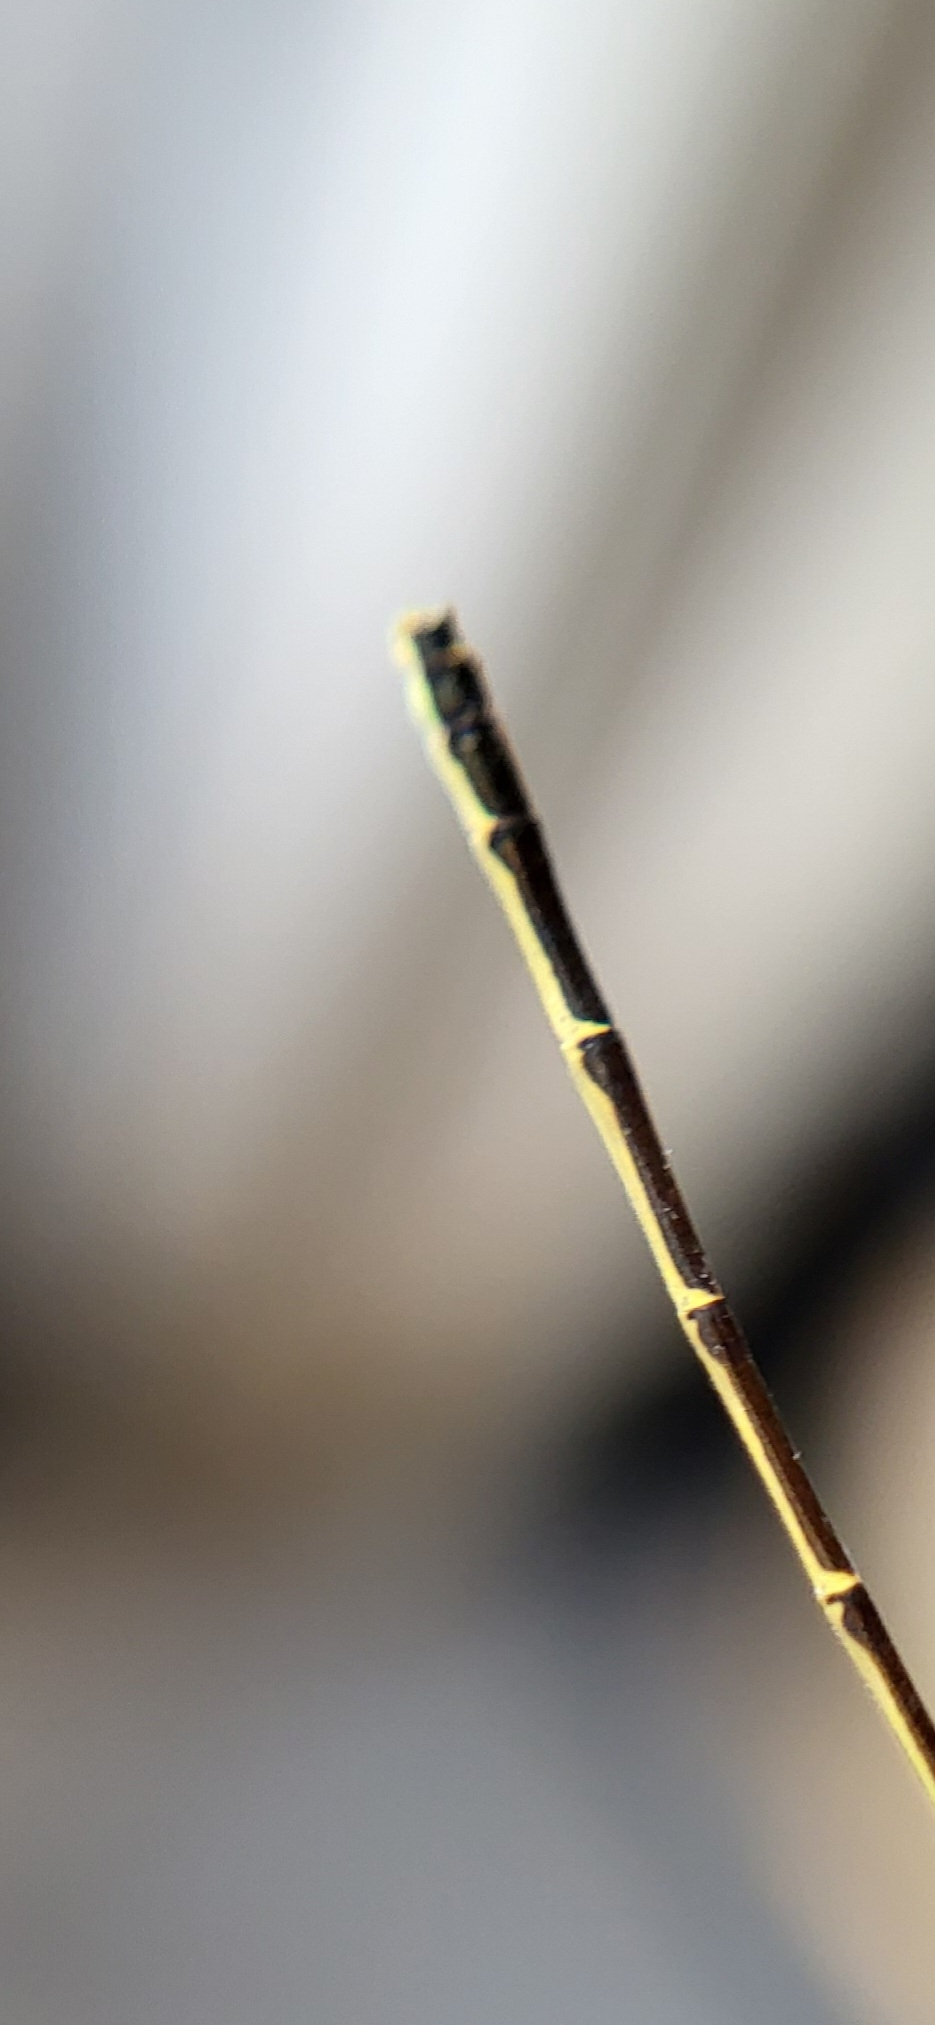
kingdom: Animalia
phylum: Arthropoda
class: Insecta
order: Odonata
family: Coenagrionidae
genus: Ischnura
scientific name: Ischnura posita
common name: Fragile forktail
